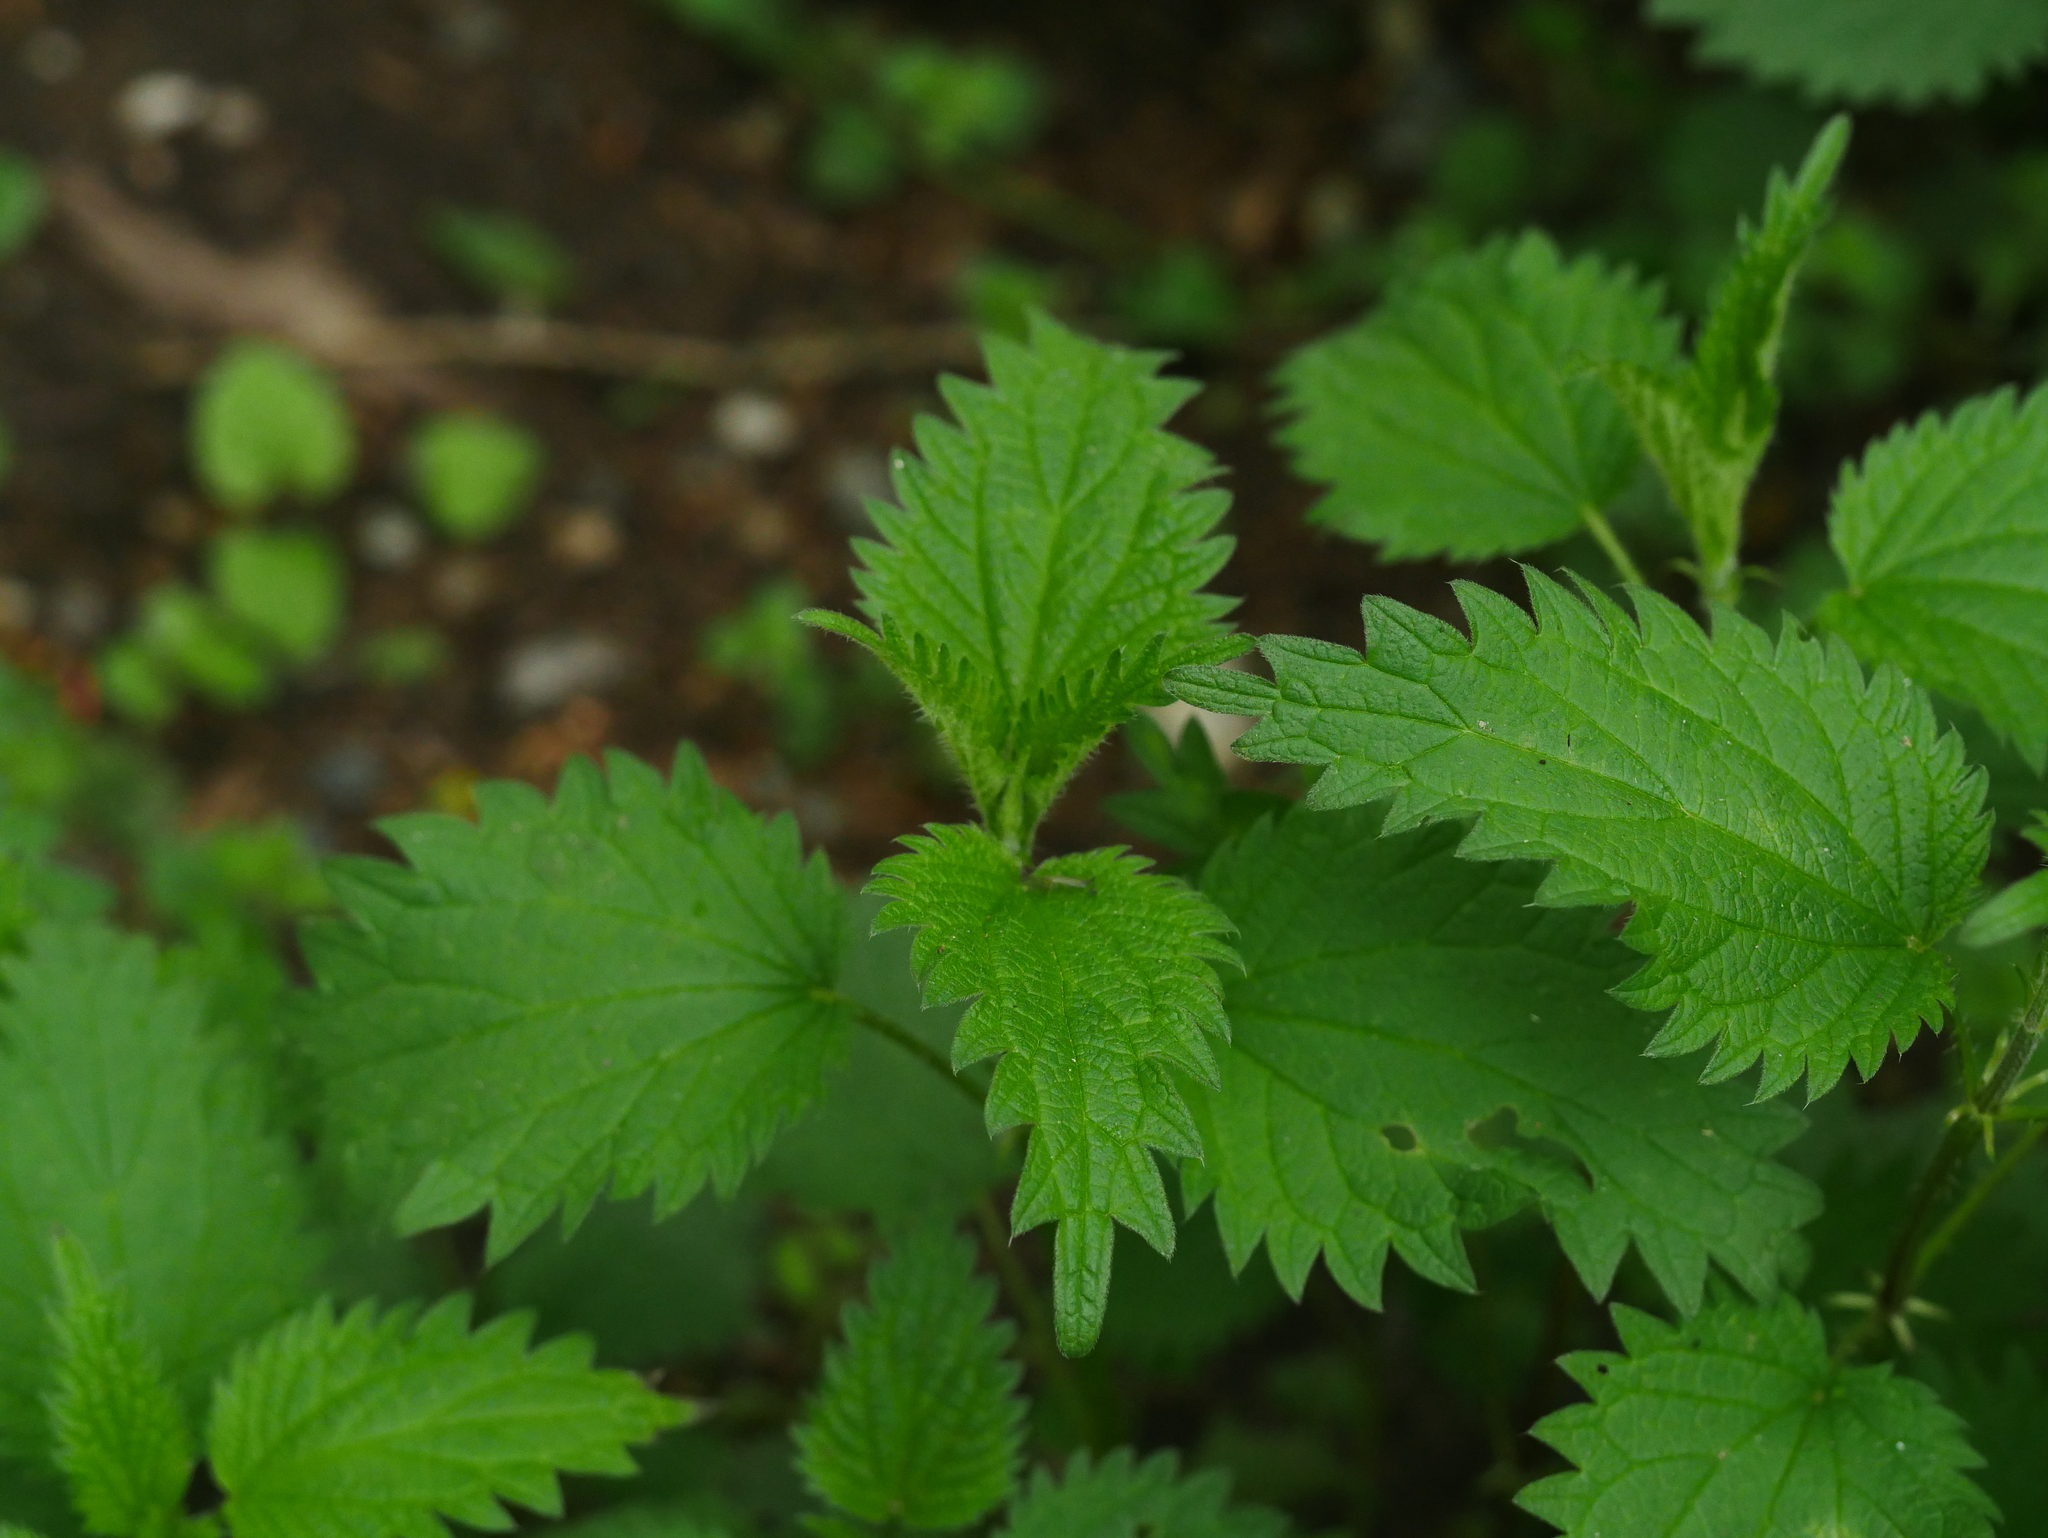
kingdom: Plantae
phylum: Tracheophyta
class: Magnoliopsida
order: Rosales
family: Urticaceae
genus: Urtica
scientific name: Urtica dioica
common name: Common nettle
